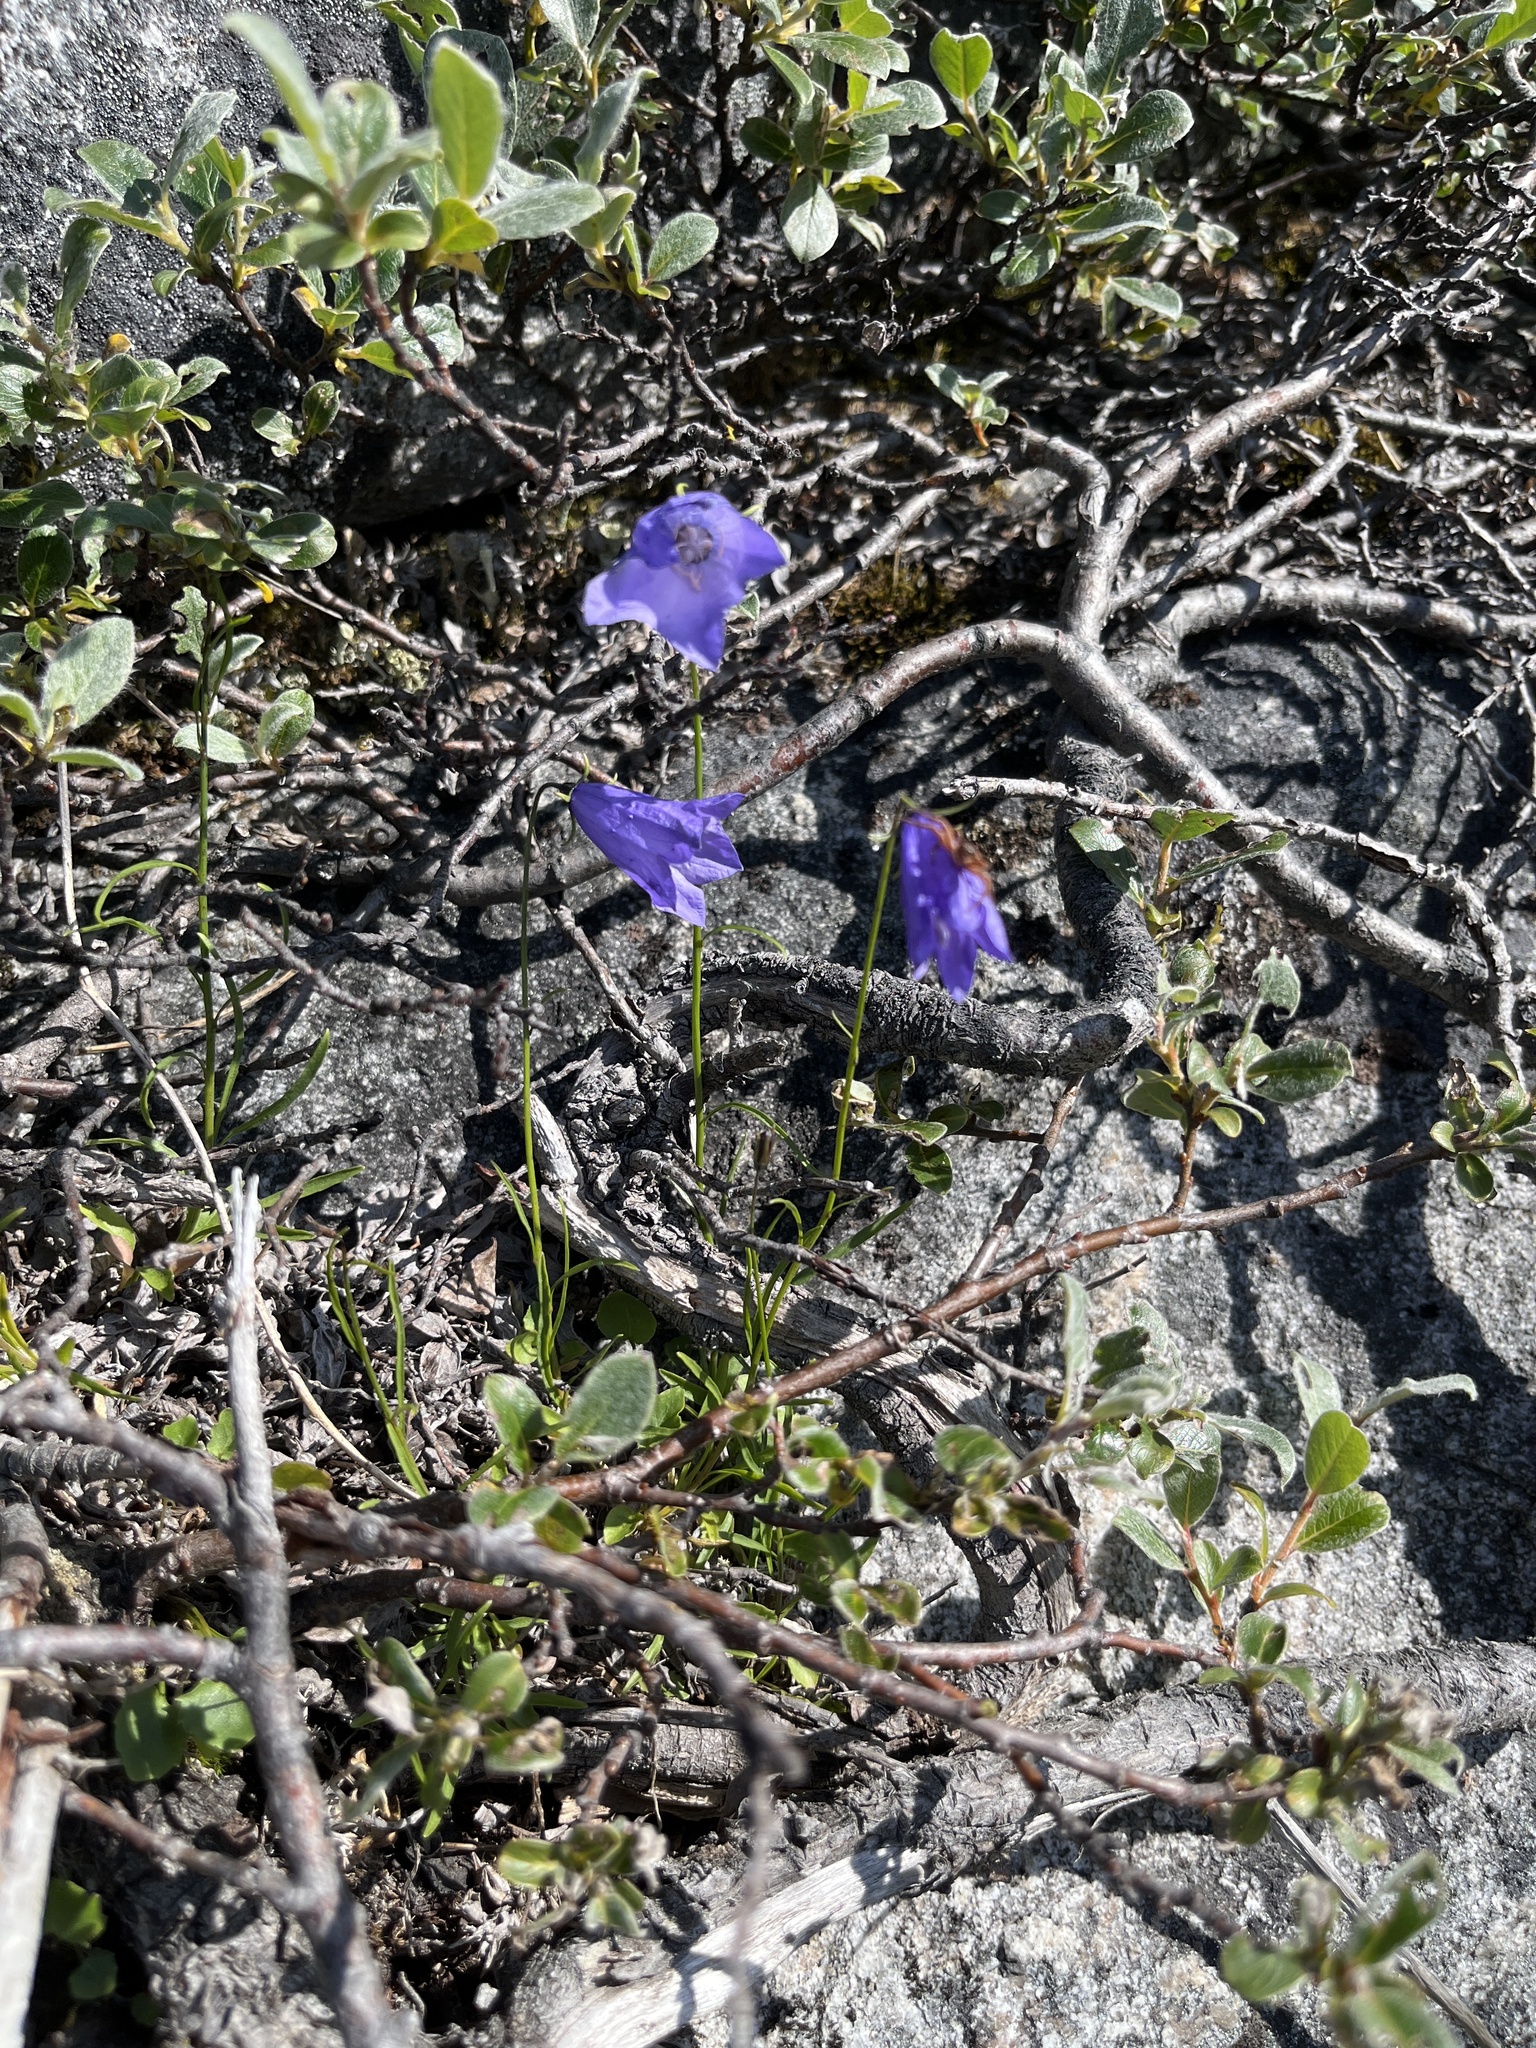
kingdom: Plantae
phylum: Tracheophyta
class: Magnoliopsida
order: Asterales
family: Campanulaceae
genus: Campanula
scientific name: Campanula giesekiana
